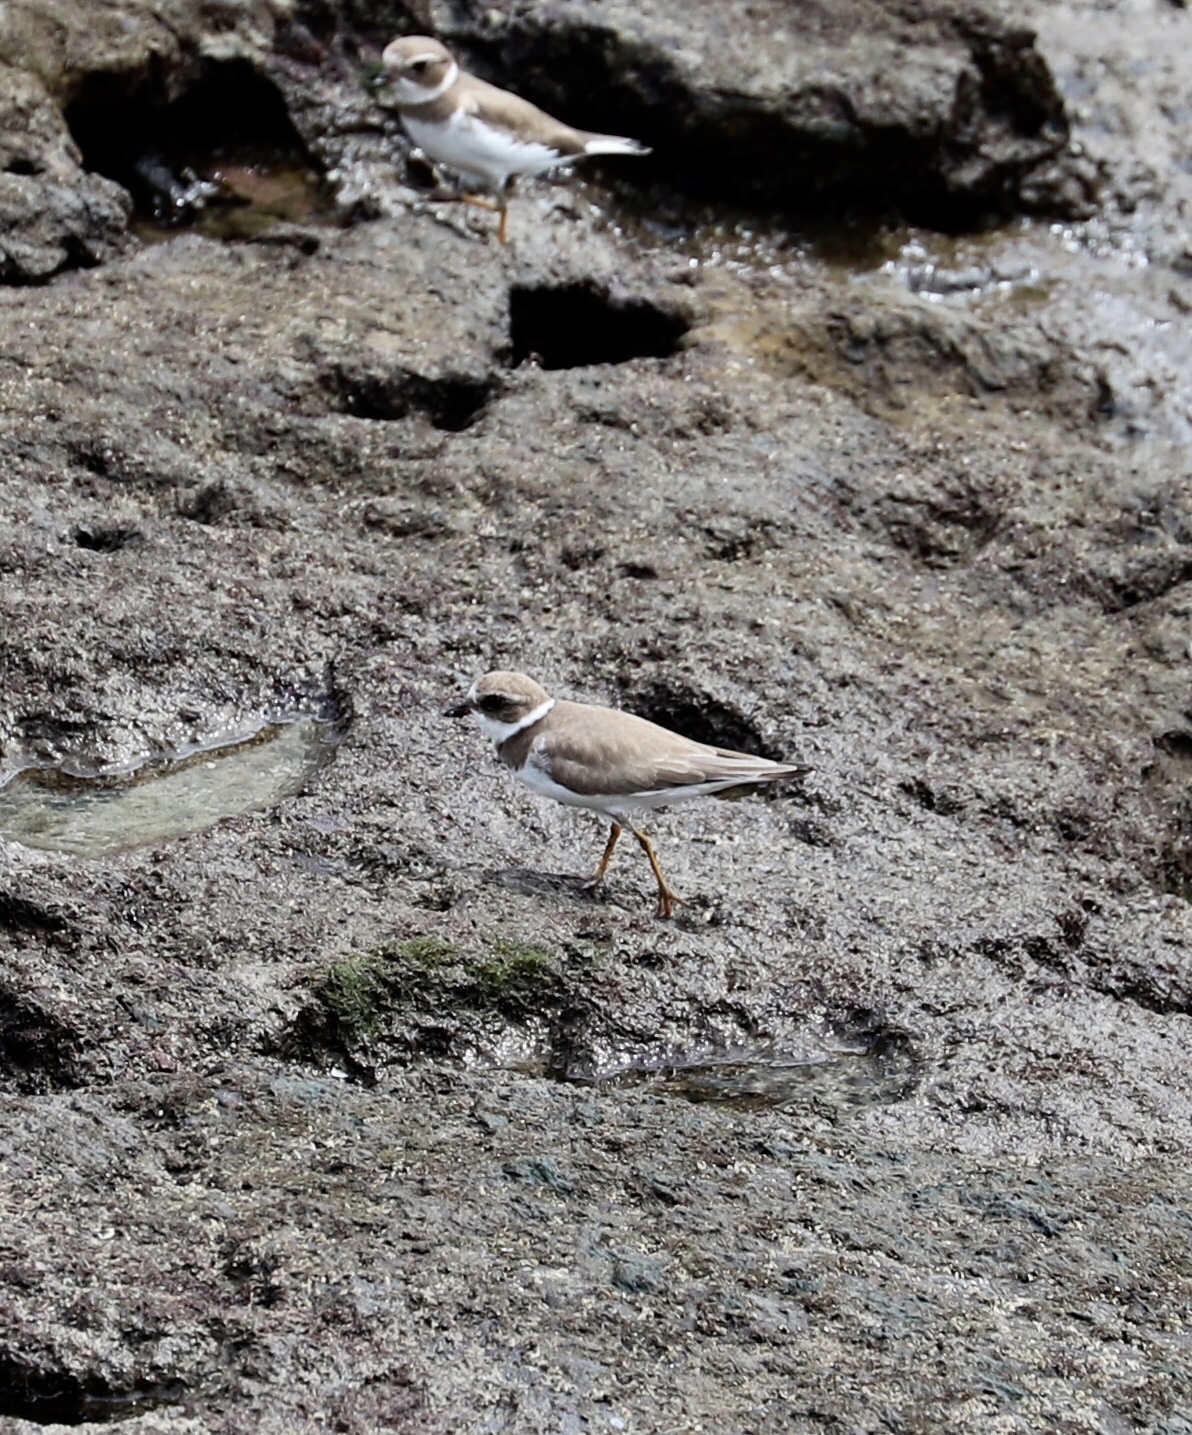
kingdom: Animalia
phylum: Chordata
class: Aves
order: Charadriiformes
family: Charadriidae
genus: Charadrius
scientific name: Charadrius semipalmatus
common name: Semipalmated plover
